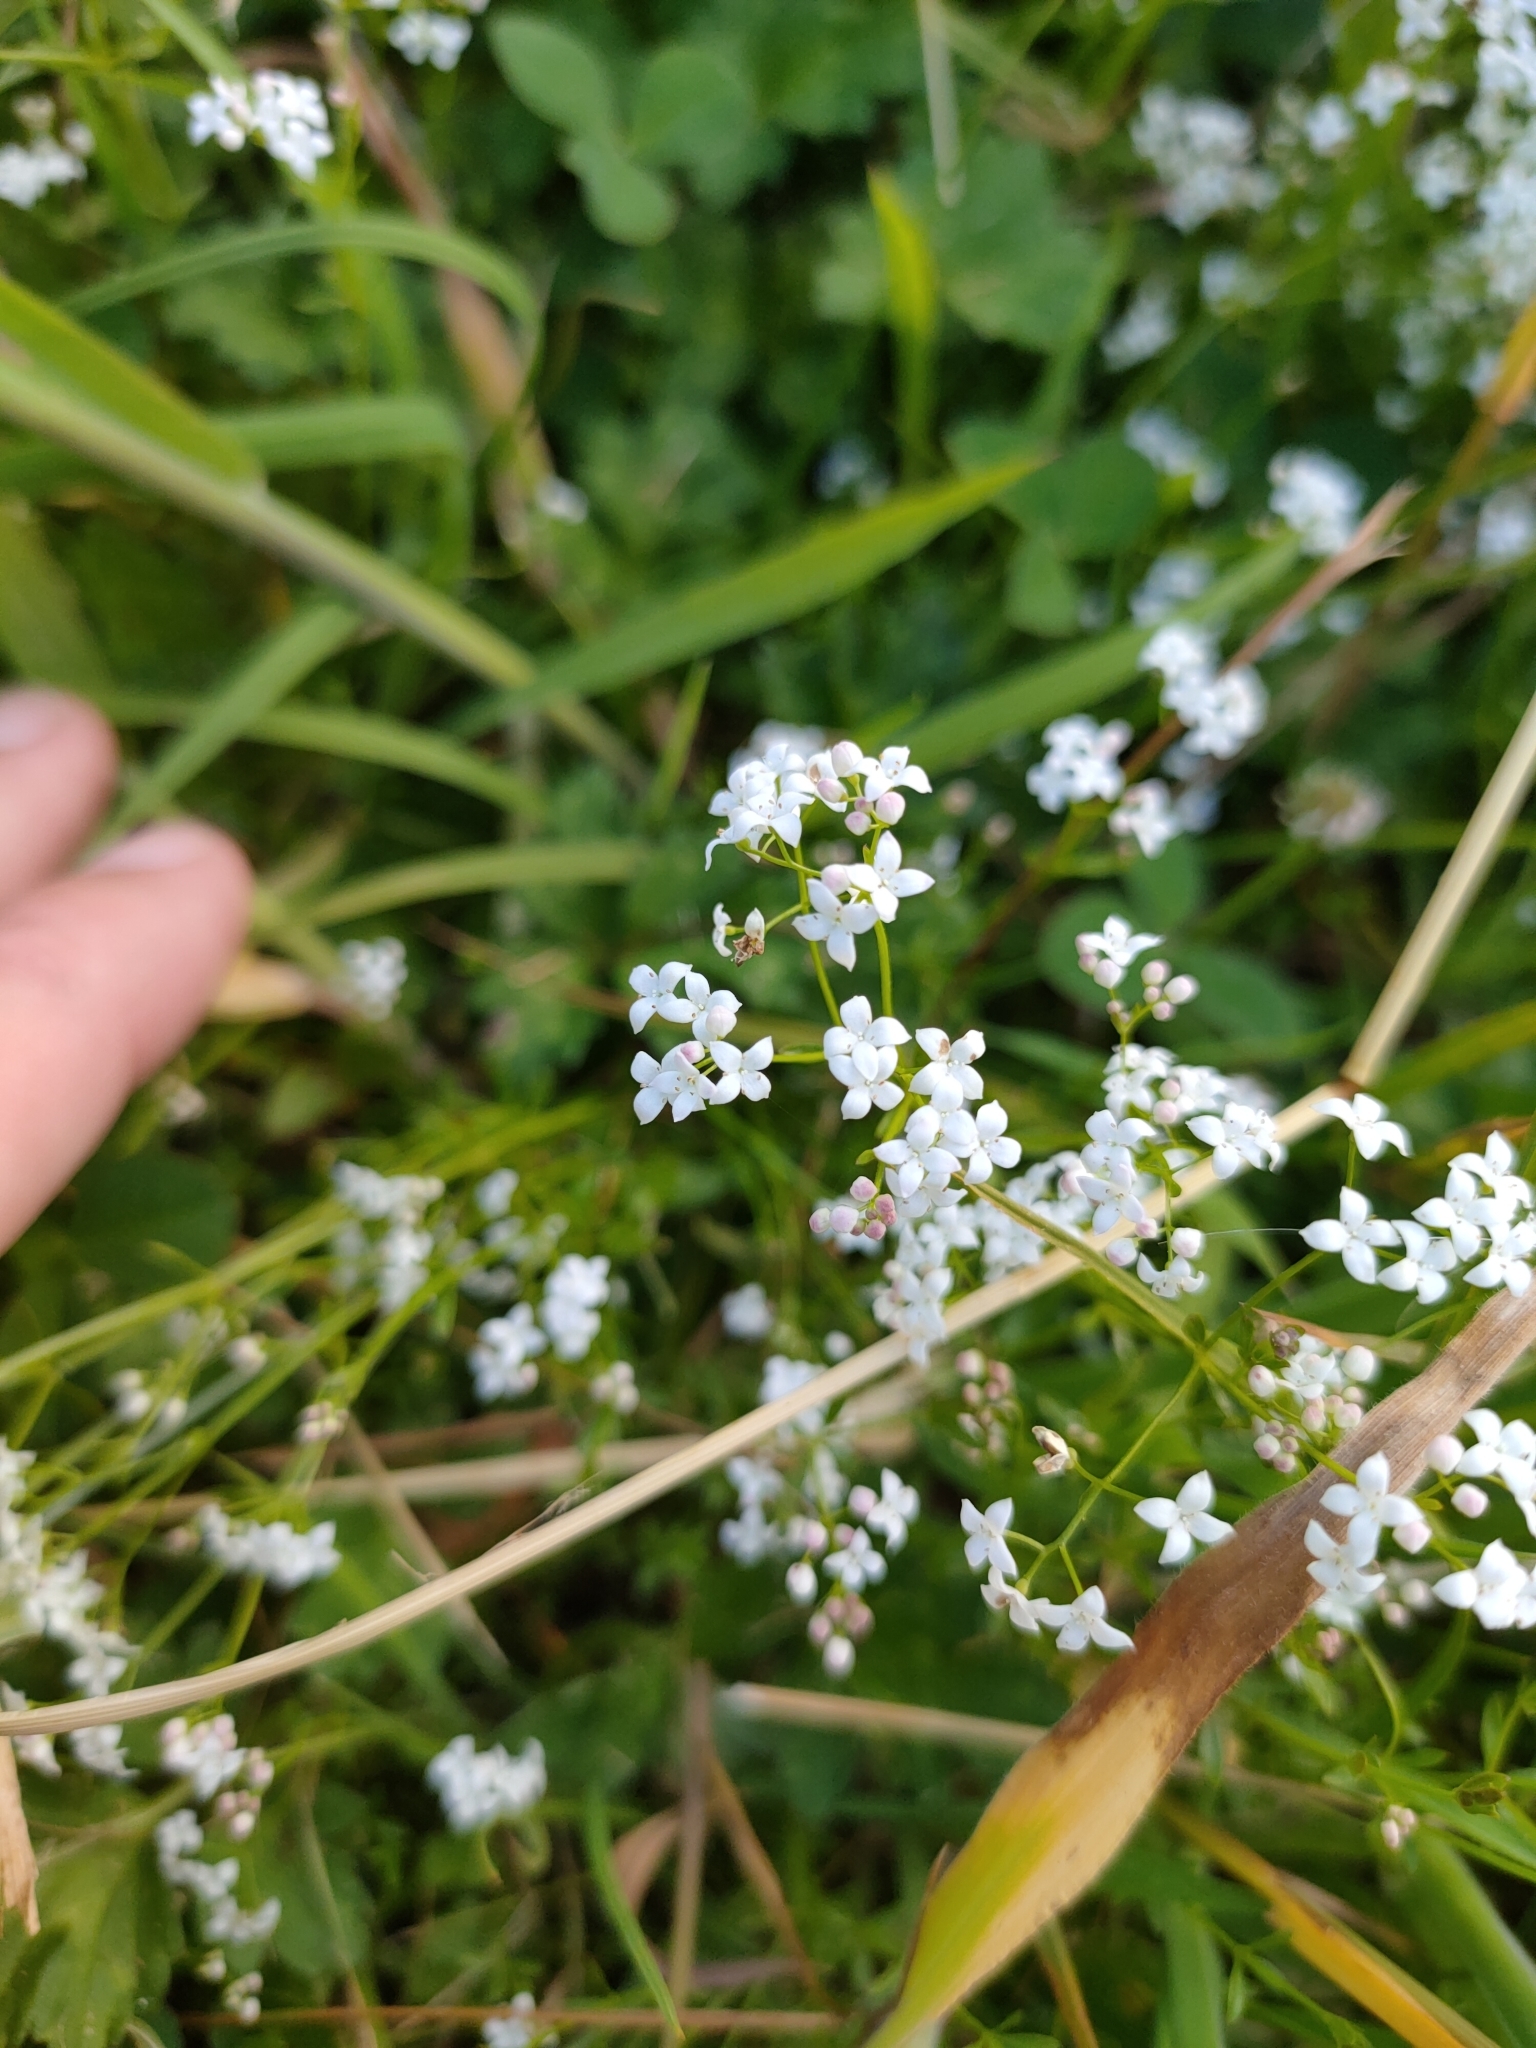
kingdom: Plantae
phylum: Tracheophyta
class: Magnoliopsida
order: Gentianales
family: Rubiaceae
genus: Galium
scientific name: Galium palustre
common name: Common marsh-bedstraw
